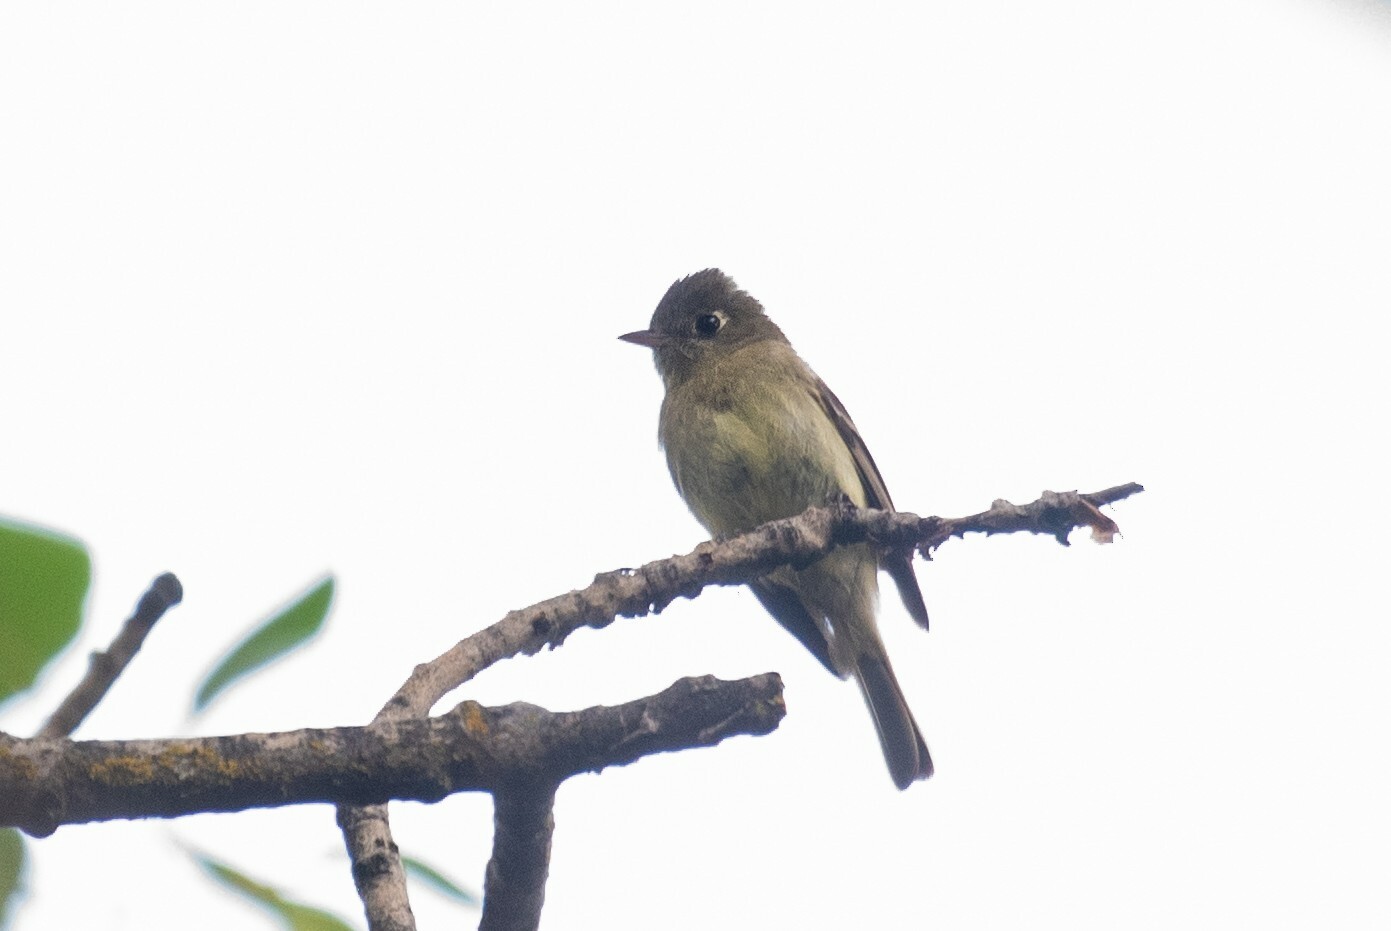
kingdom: Animalia
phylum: Chordata
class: Aves
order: Passeriformes
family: Tyrannidae
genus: Empidonax
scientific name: Empidonax difficilis
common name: Pacific-slope flycatcher
